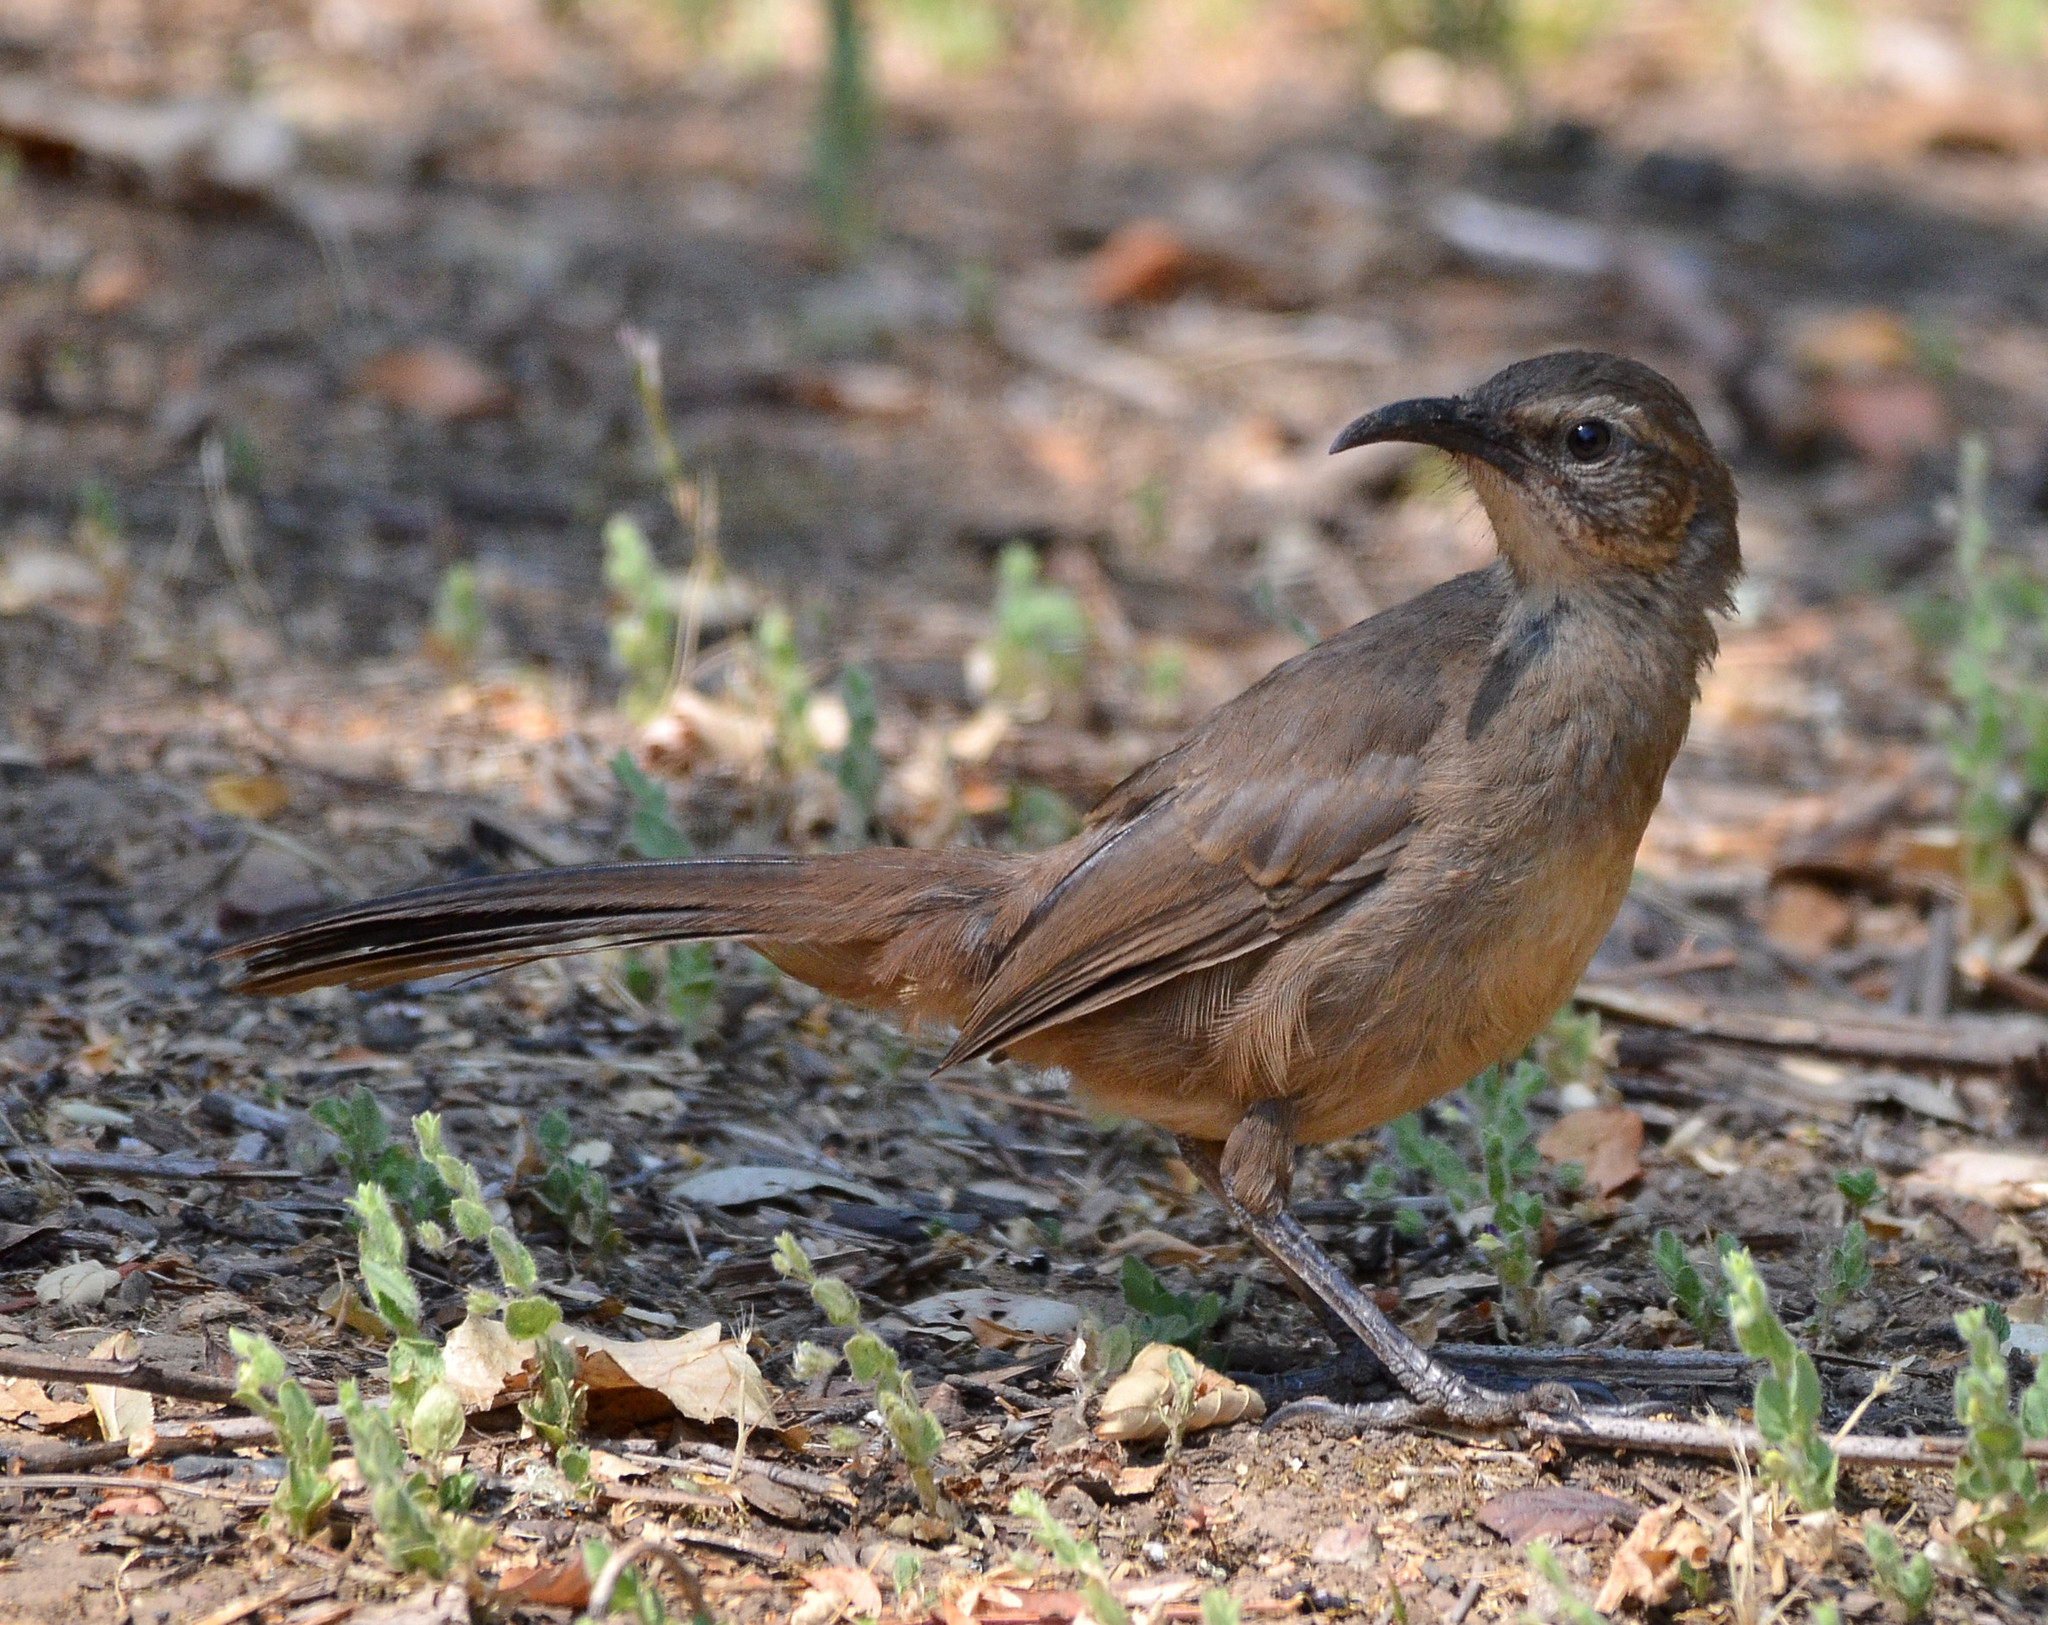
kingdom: Animalia
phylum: Chordata
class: Aves
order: Passeriformes
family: Mimidae
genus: Toxostoma
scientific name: Toxostoma redivivum
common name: California thrasher
